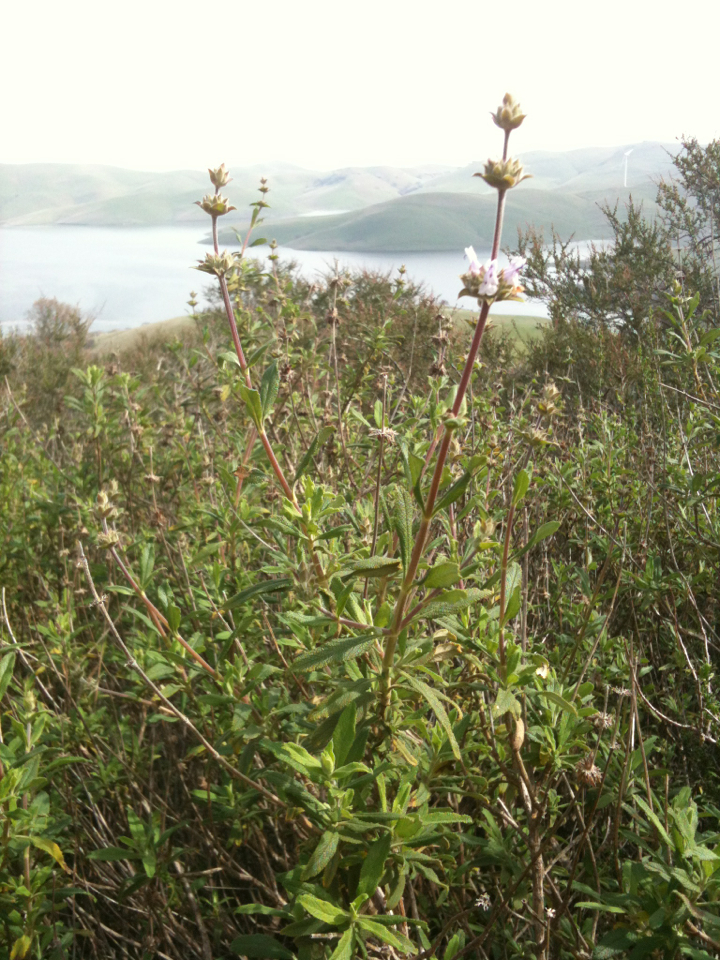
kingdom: Plantae
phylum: Tracheophyta
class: Magnoliopsida
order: Lamiales
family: Lamiaceae
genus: Salvia
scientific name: Salvia mellifera
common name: Black sage
